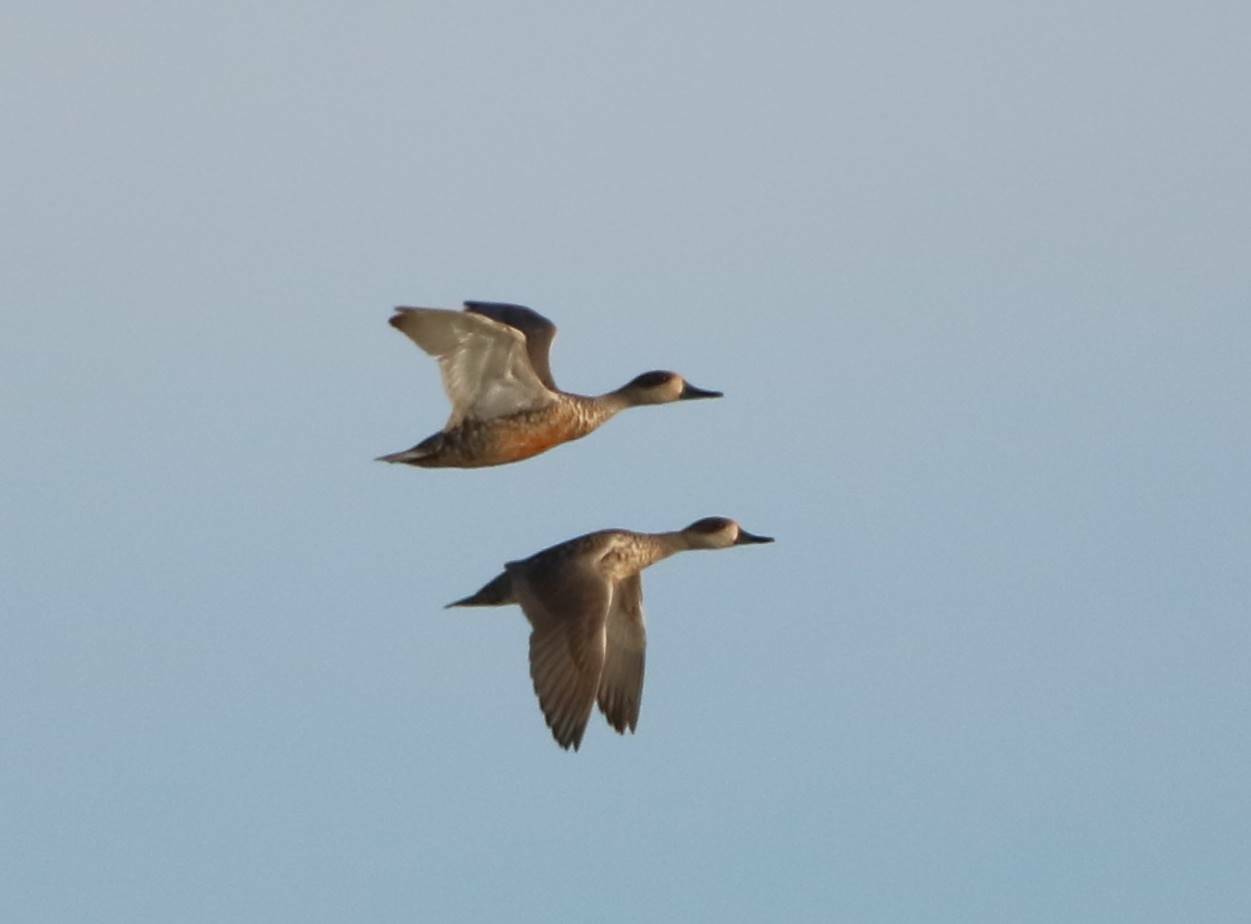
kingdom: Animalia
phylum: Chordata
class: Aves
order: Anseriformes
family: Anatidae
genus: Marmaronetta
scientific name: Marmaronetta angustirostris
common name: Marbled duck
